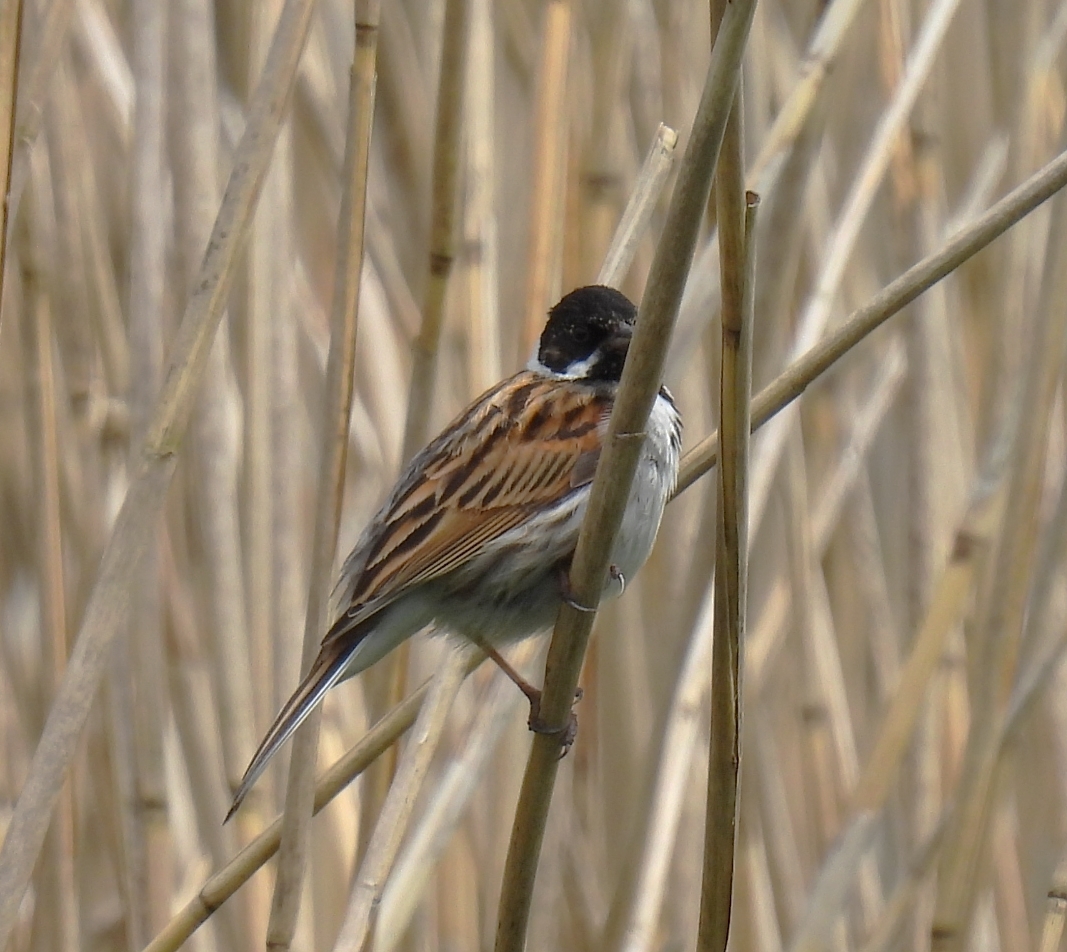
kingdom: Animalia
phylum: Chordata
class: Aves
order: Passeriformes
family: Emberizidae
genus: Emberiza
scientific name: Emberiza schoeniclus
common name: Reed bunting
